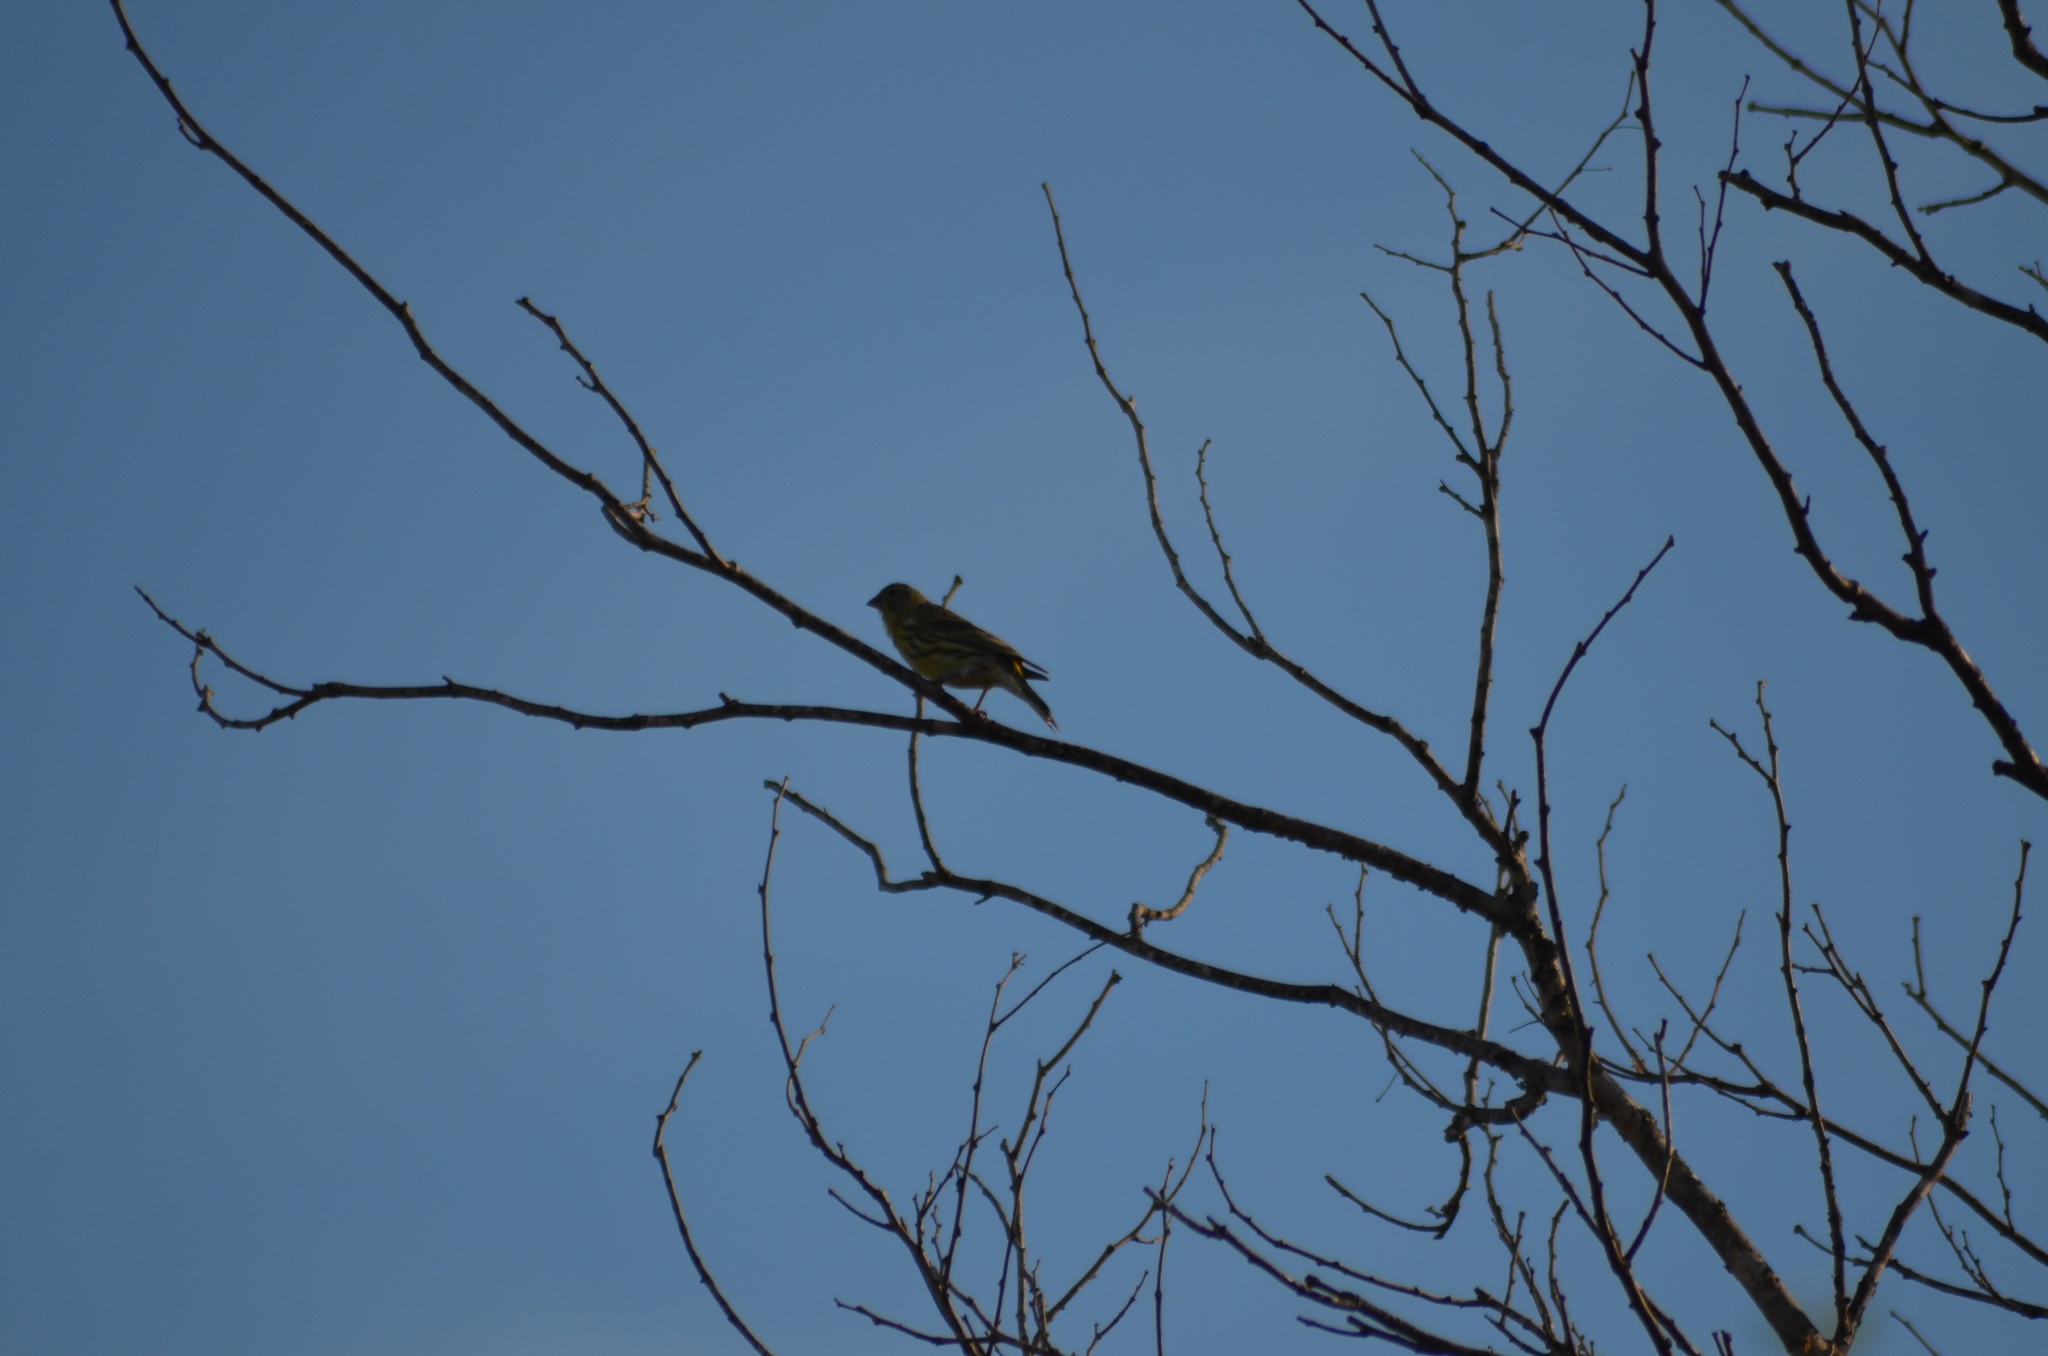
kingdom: Animalia
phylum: Chordata
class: Aves
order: Passeriformes
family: Fringillidae
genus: Serinus
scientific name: Serinus serinus
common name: European serin
